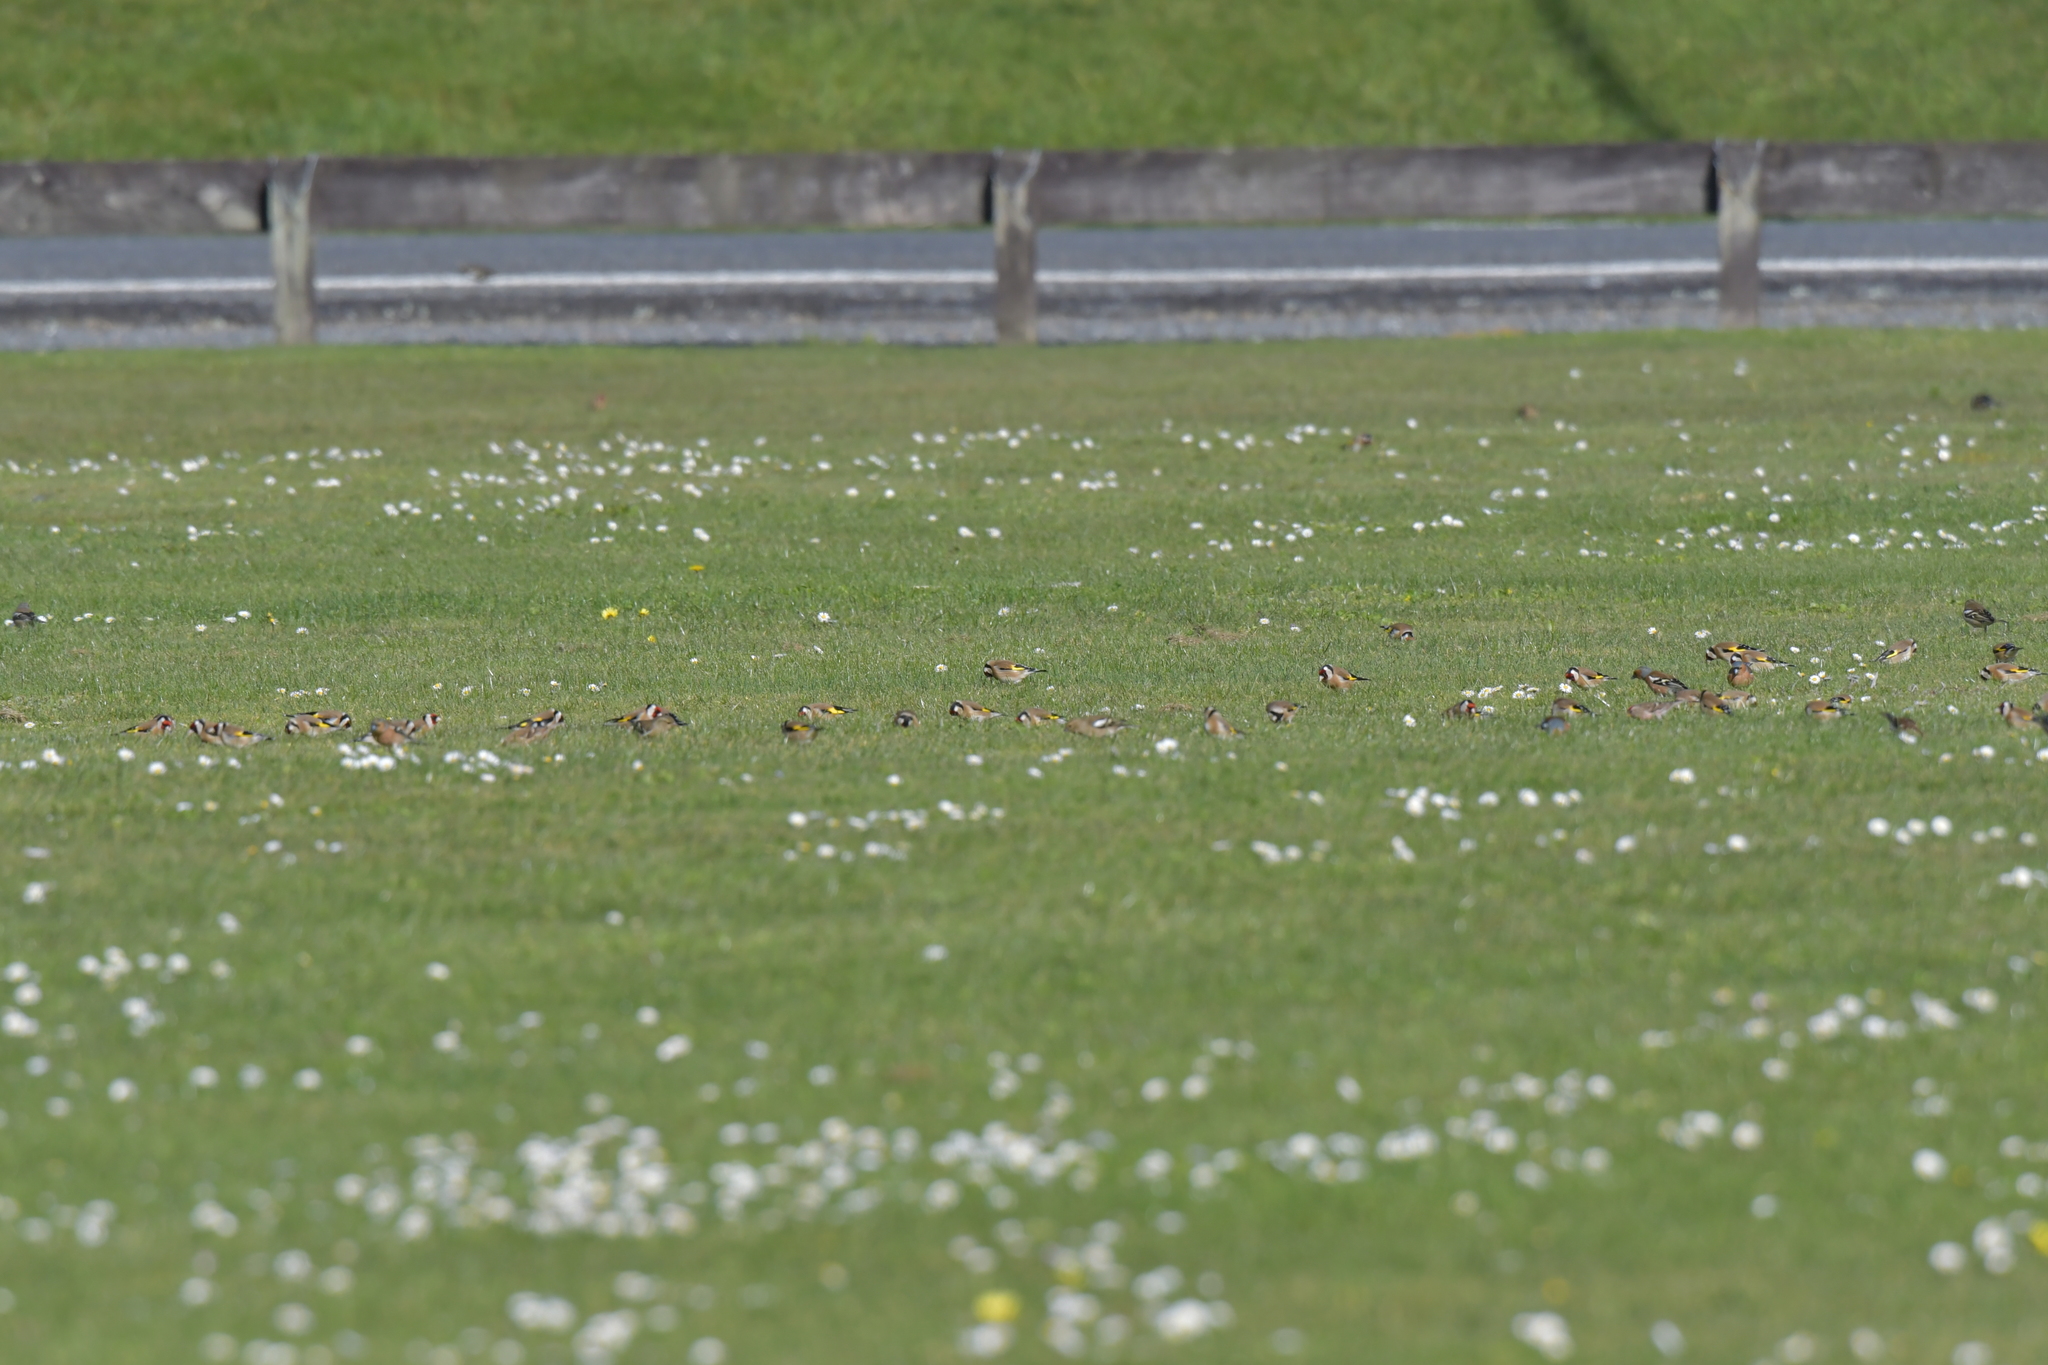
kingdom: Animalia
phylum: Chordata
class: Aves
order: Passeriformes
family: Fringillidae
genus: Carduelis
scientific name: Carduelis carduelis
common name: European goldfinch
